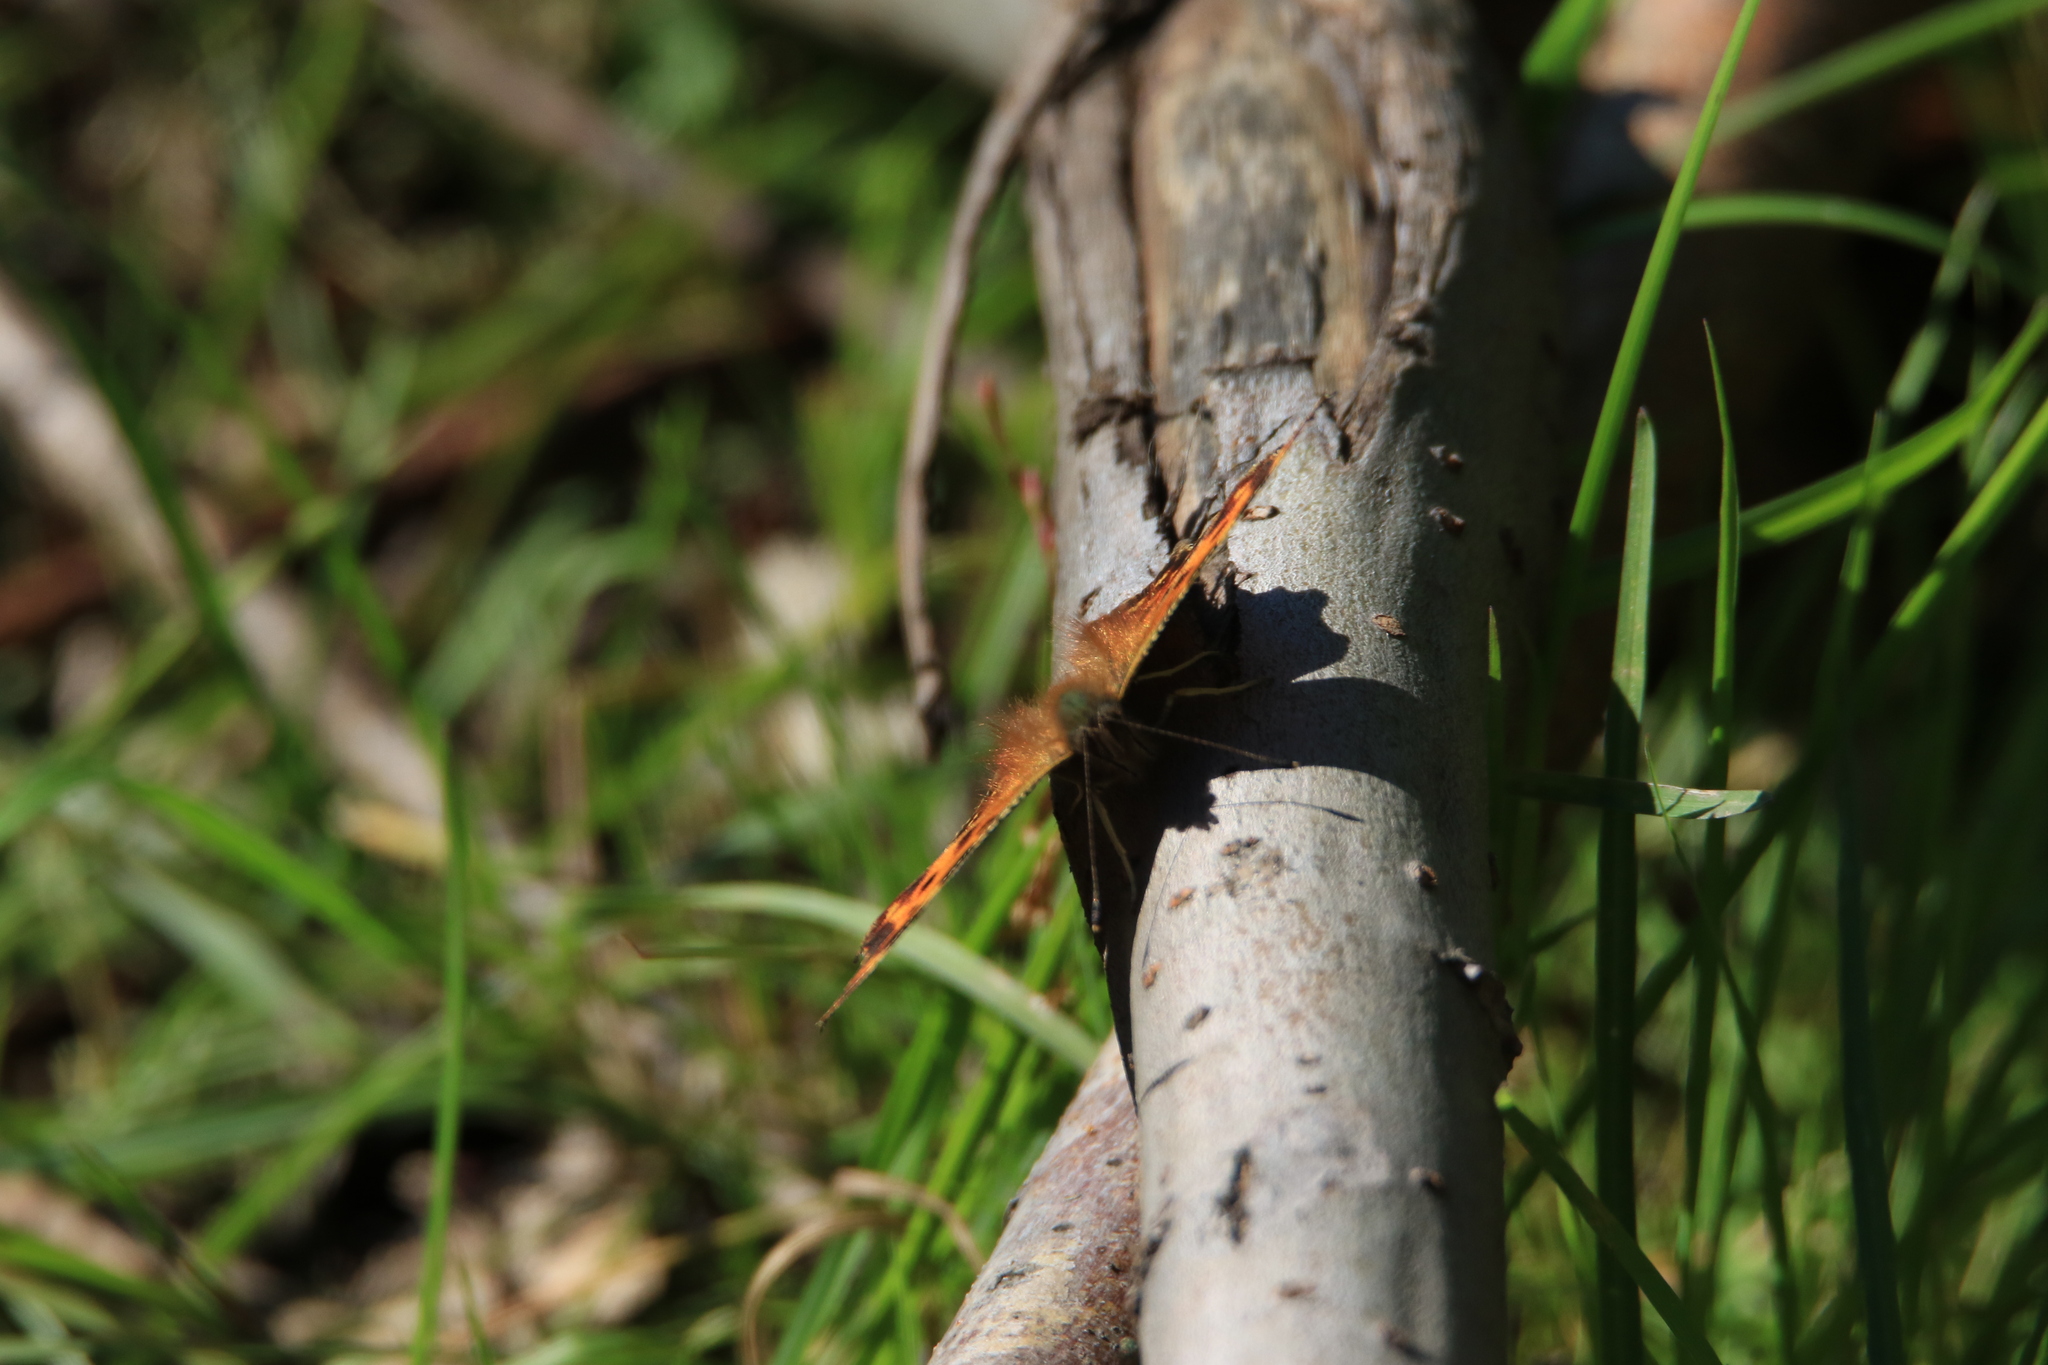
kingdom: Animalia
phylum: Arthropoda
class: Insecta
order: Lepidoptera
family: Nymphalidae
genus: Polygonia
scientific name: Polygonia c-album
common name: Comma
